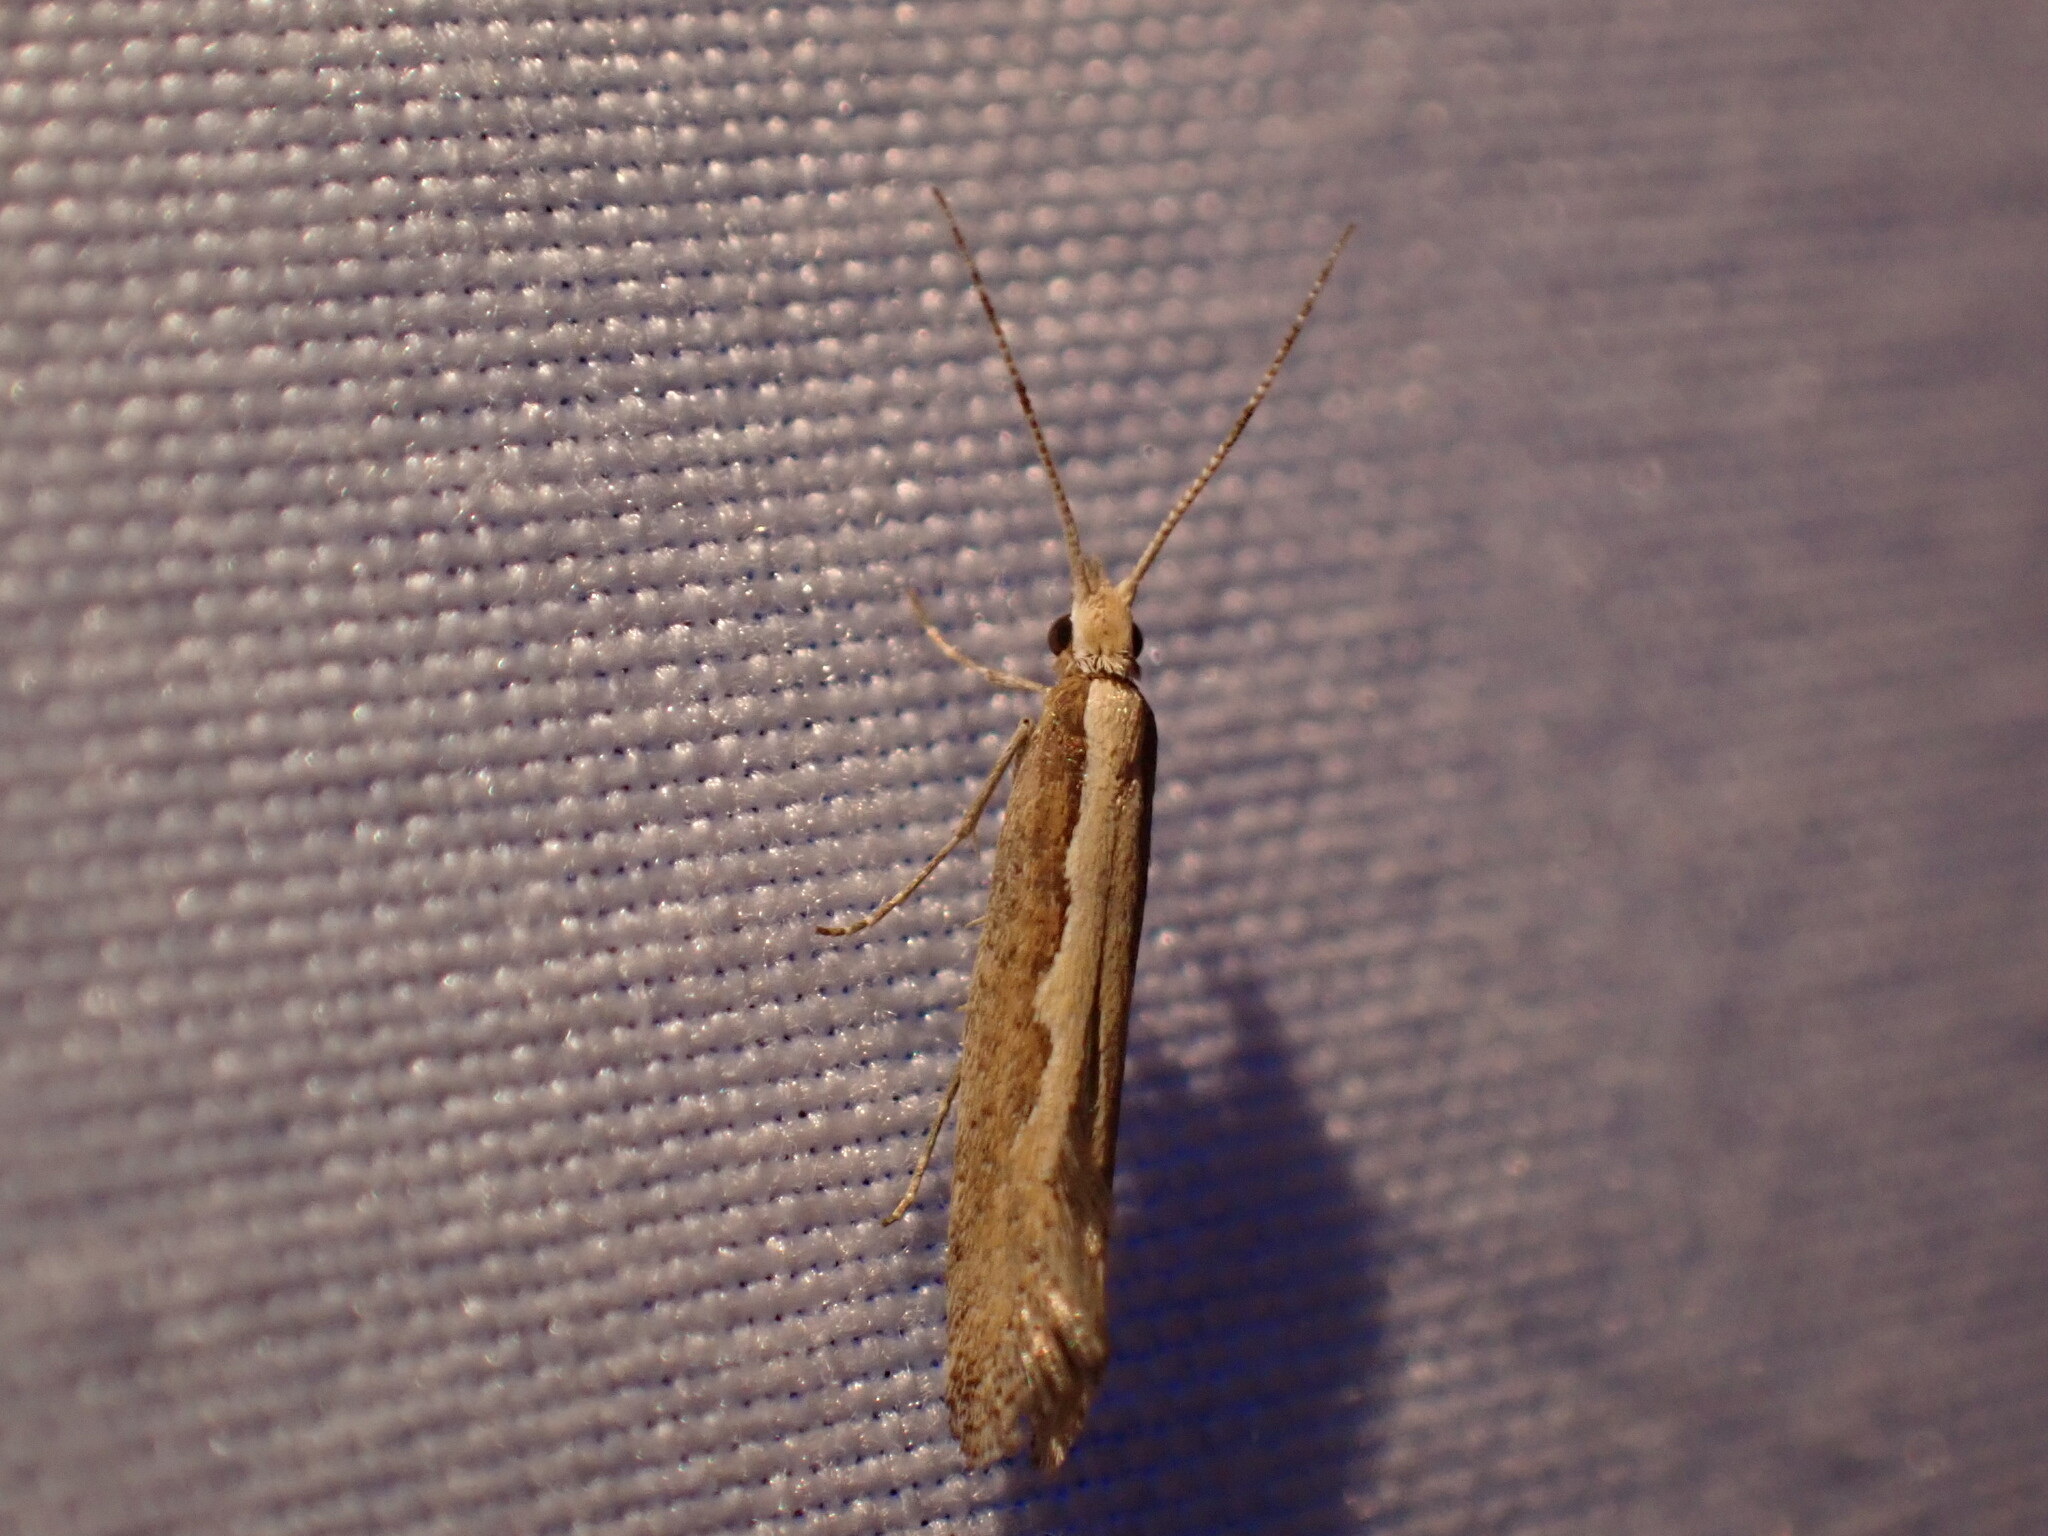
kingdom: Animalia
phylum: Arthropoda
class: Insecta
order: Lepidoptera
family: Plutellidae
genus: Plutella
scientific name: Plutella xylostella
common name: Diamond-back moth
